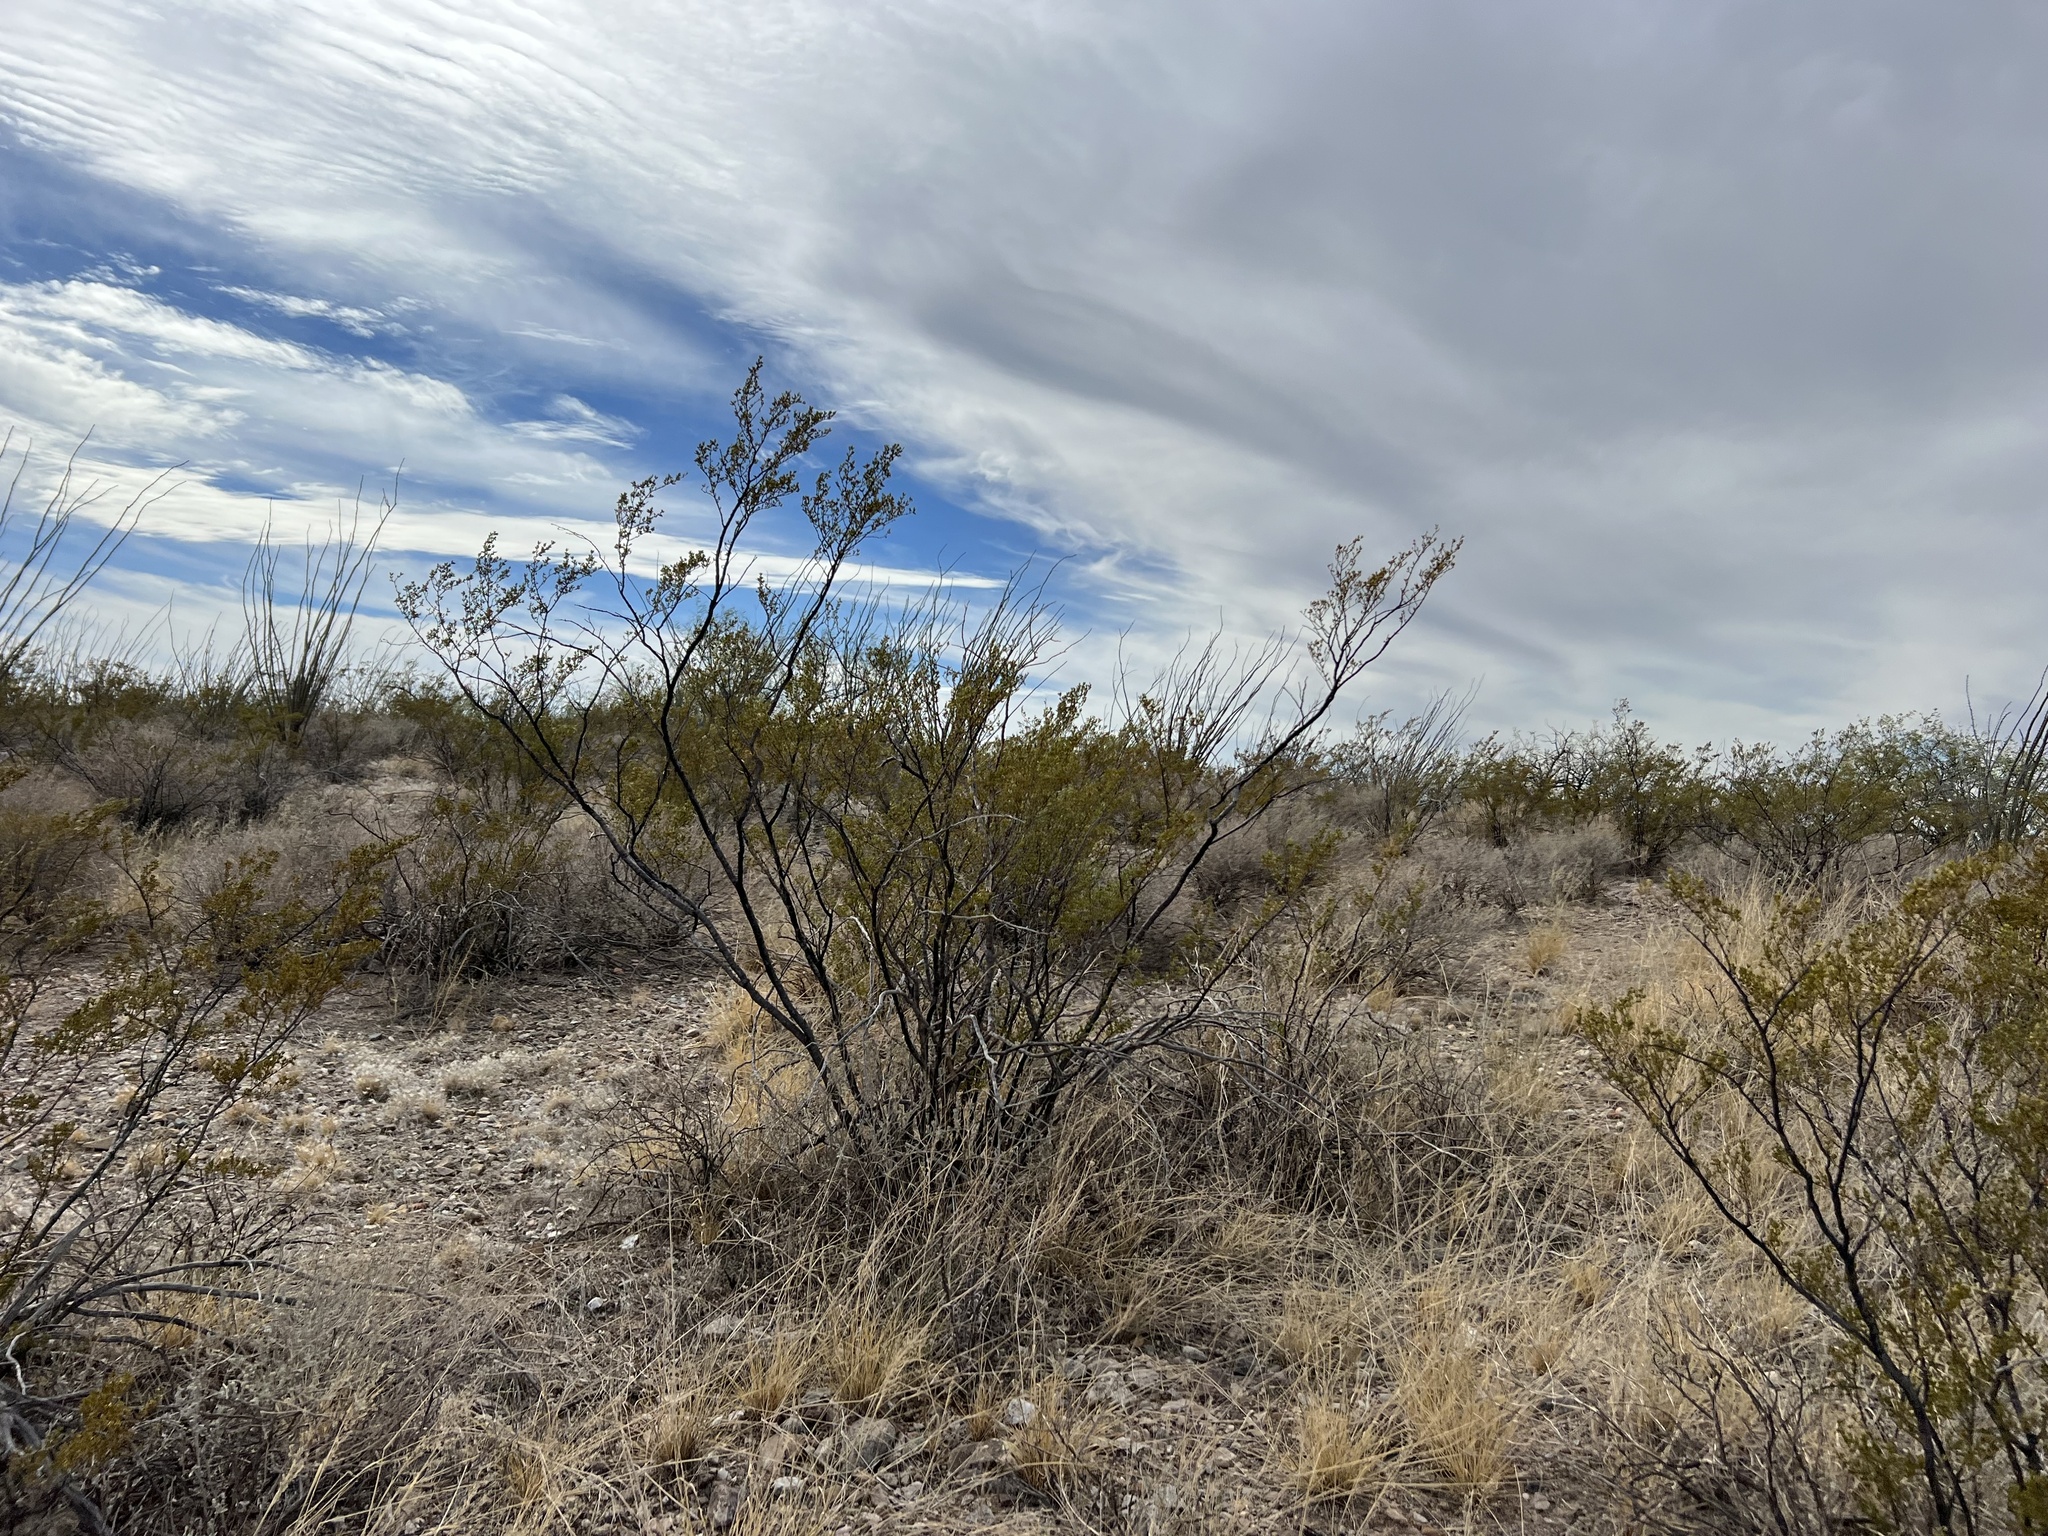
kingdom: Plantae
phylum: Tracheophyta
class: Magnoliopsida
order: Zygophyllales
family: Zygophyllaceae
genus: Larrea
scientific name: Larrea tridentata
